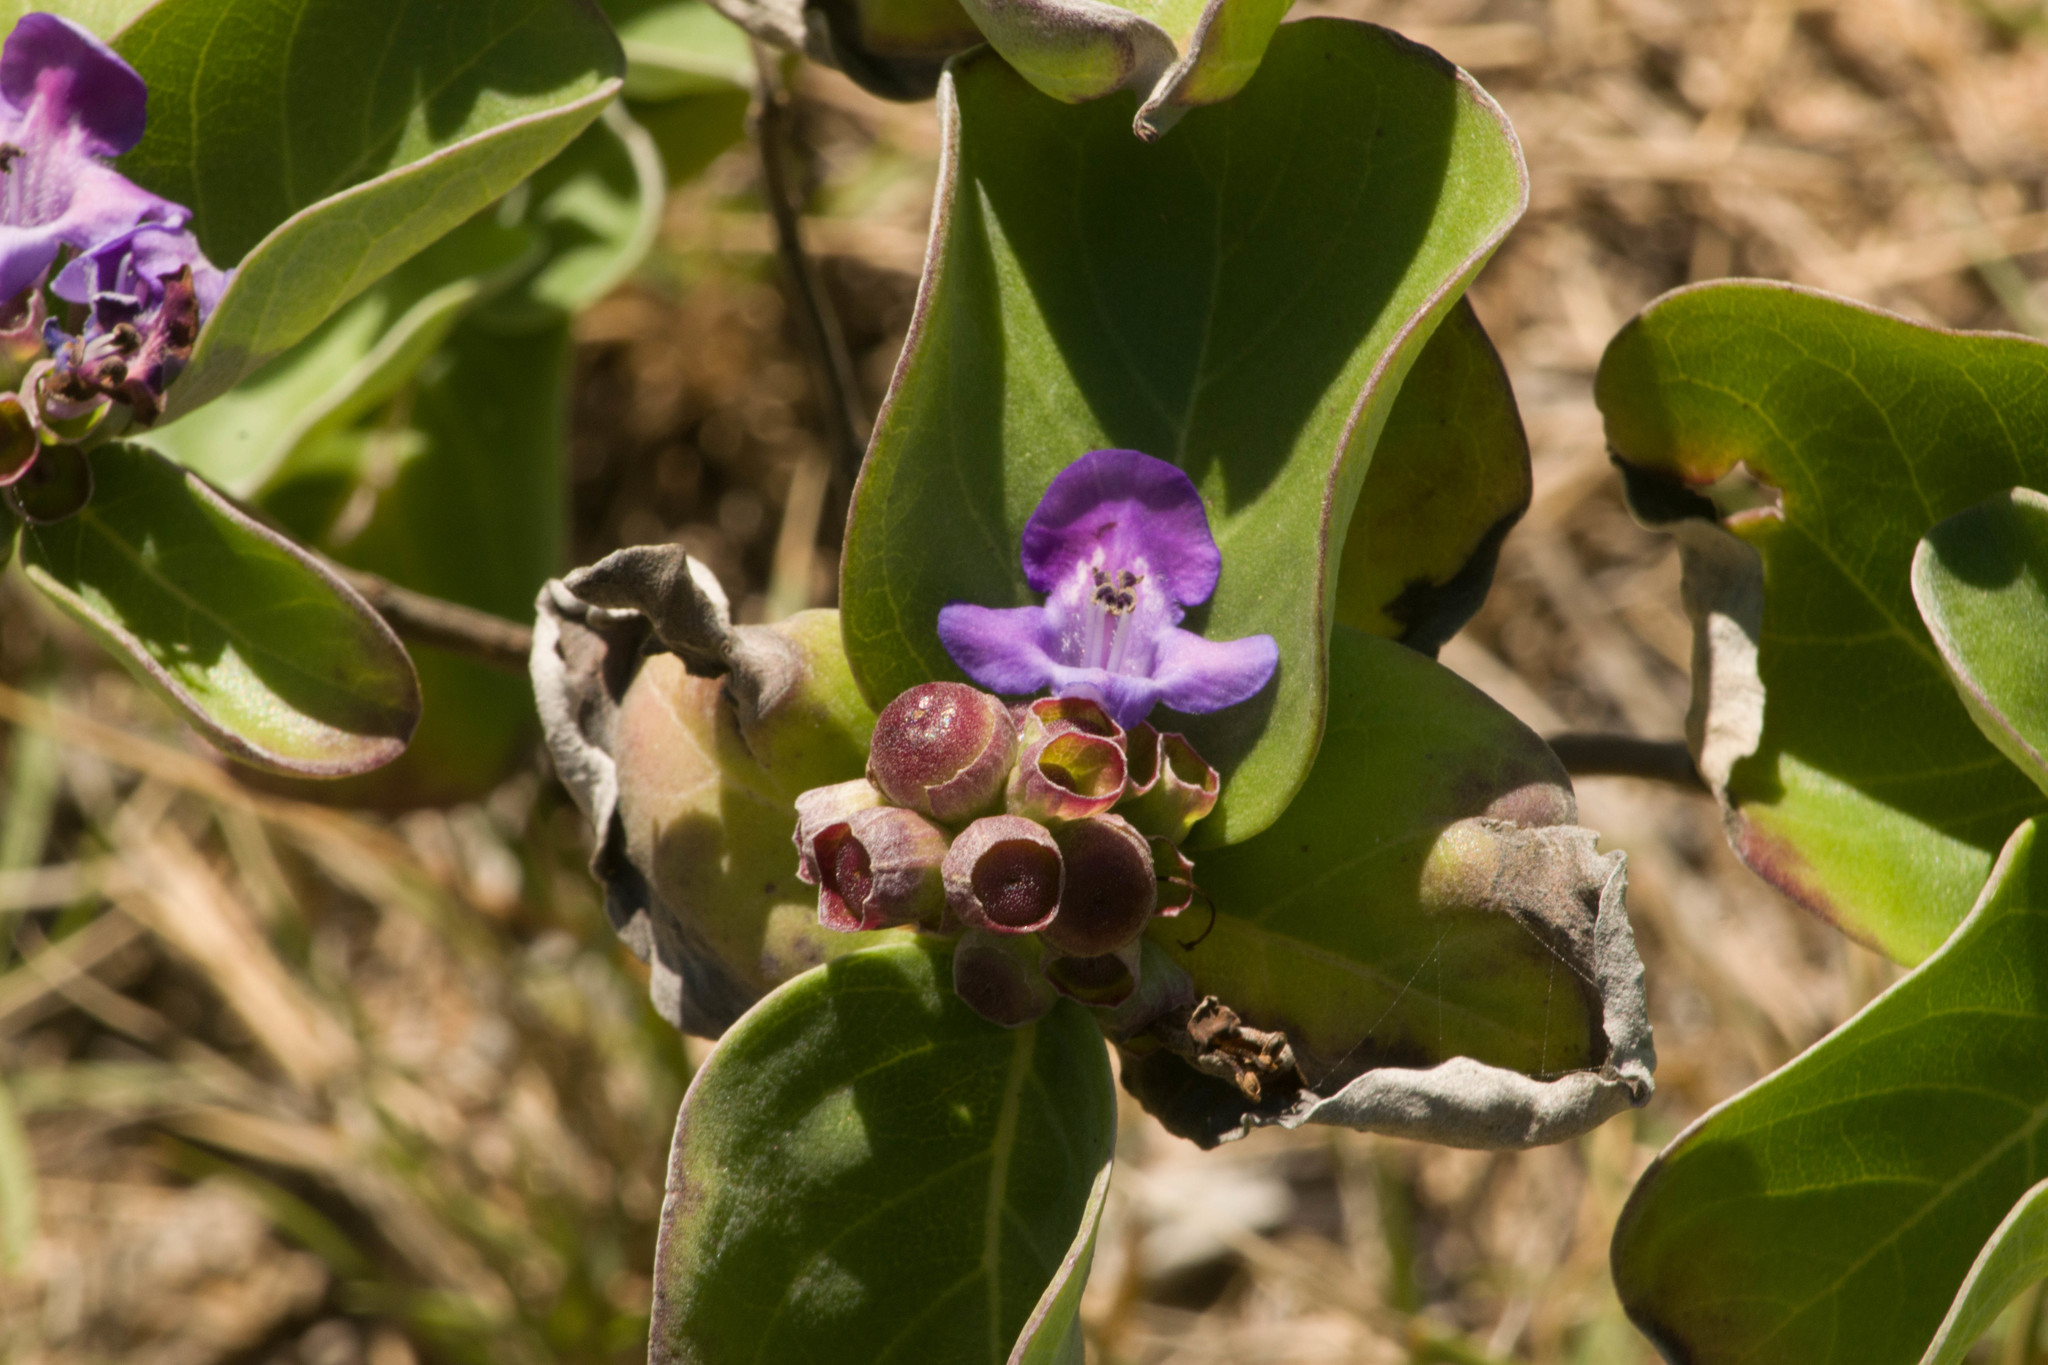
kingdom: Plantae
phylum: Tracheophyta
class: Magnoliopsida
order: Lamiales
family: Lamiaceae
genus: Vitex
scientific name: Vitex rotundifolia
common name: Beach vitex
